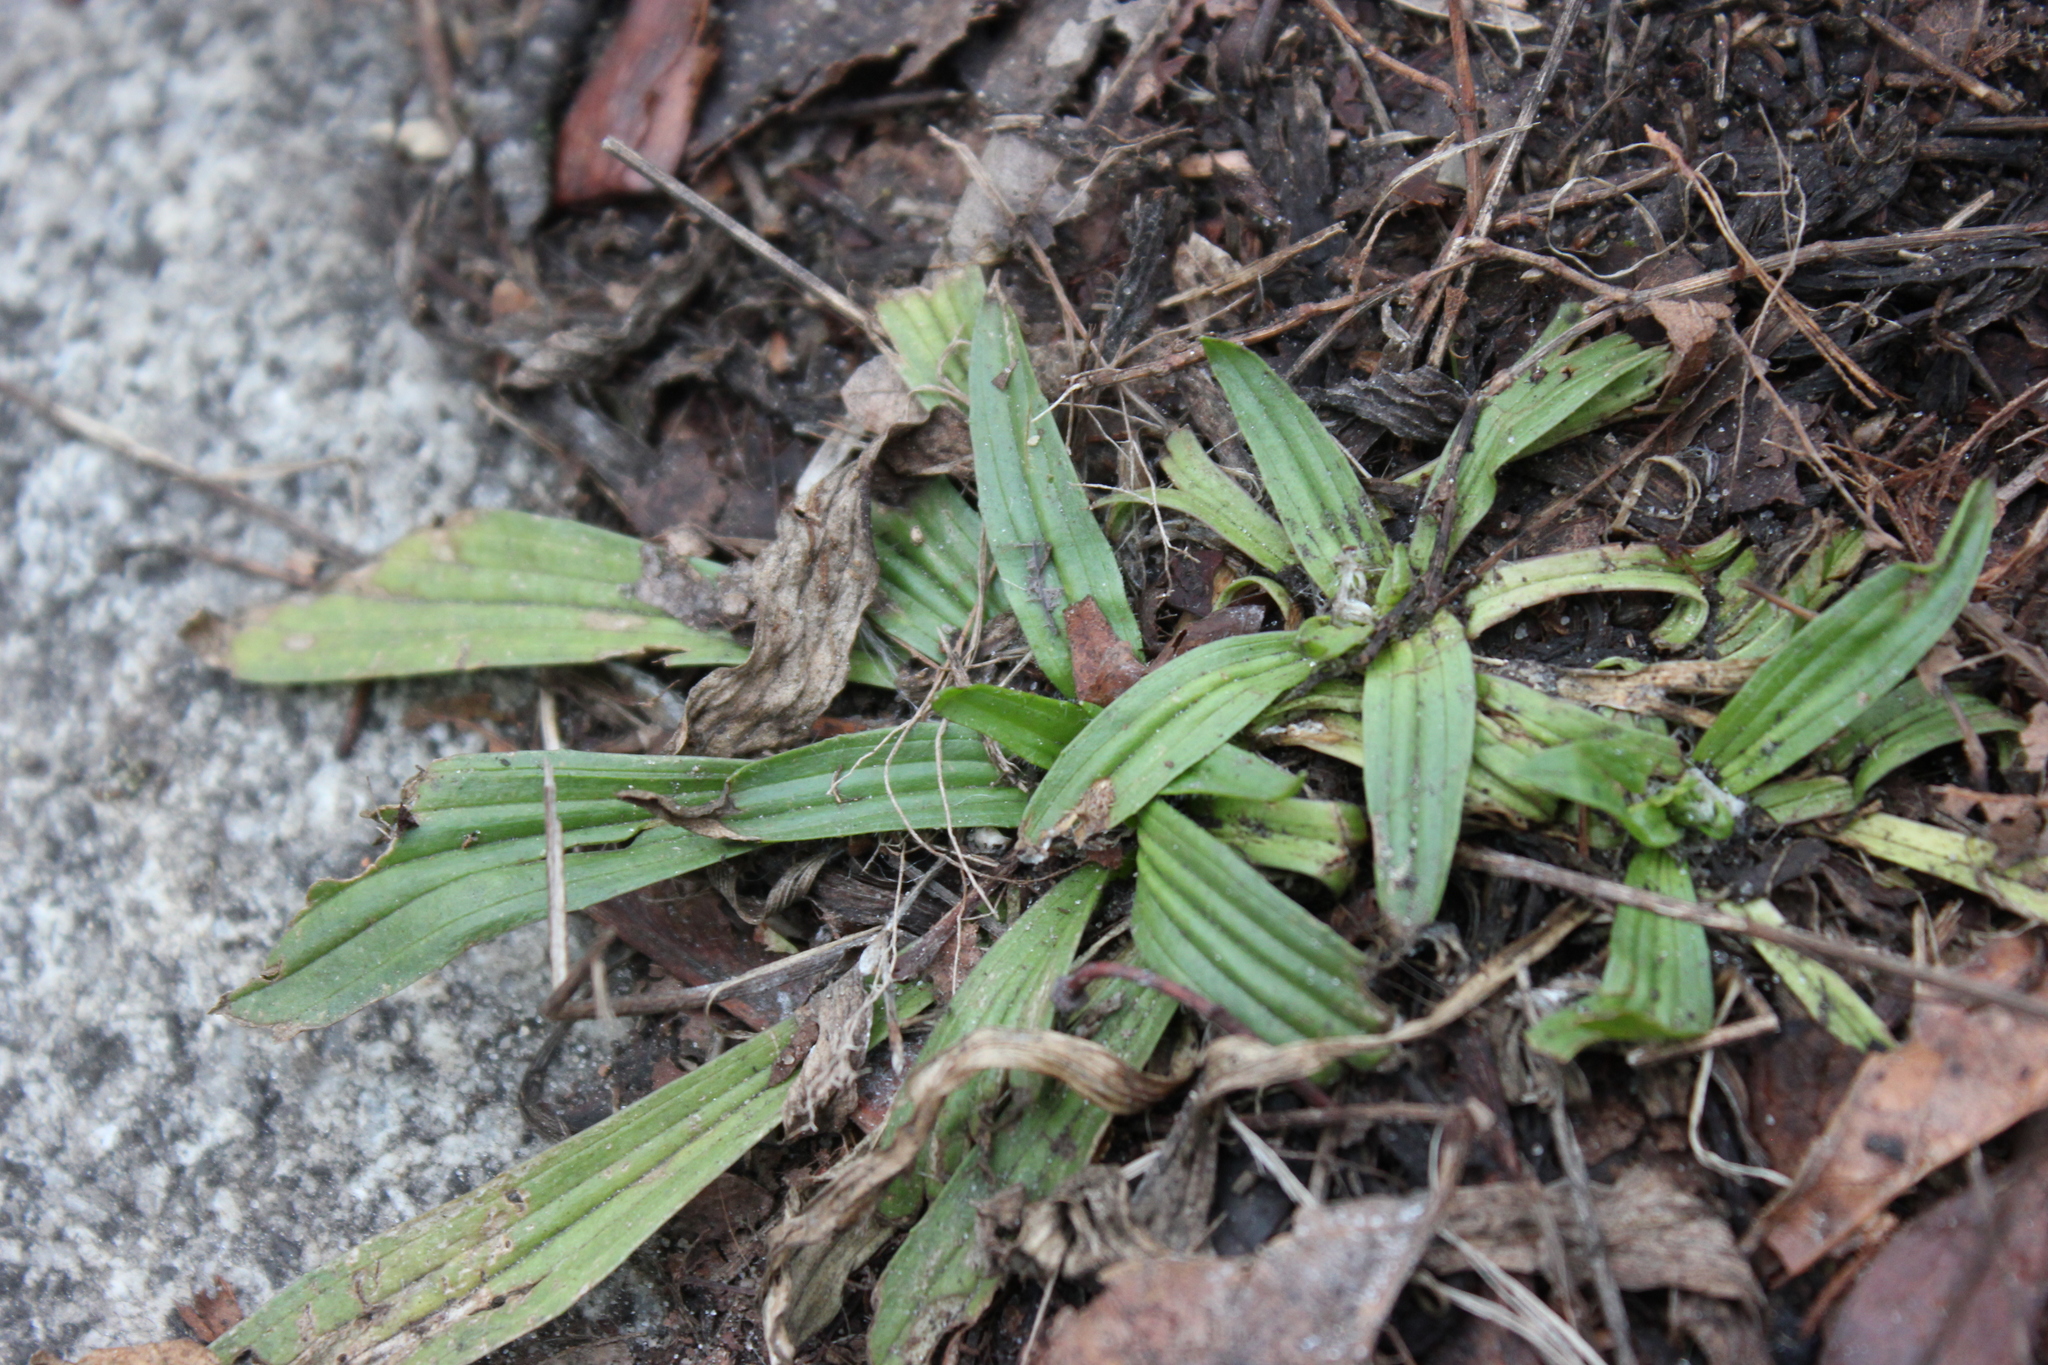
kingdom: Plantae
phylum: Tracheophyta
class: Magnoliopsida
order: Lamiales
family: Plantaginaceae
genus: Plantago
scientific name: Plantago lanceolata
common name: Ribwort plantain
